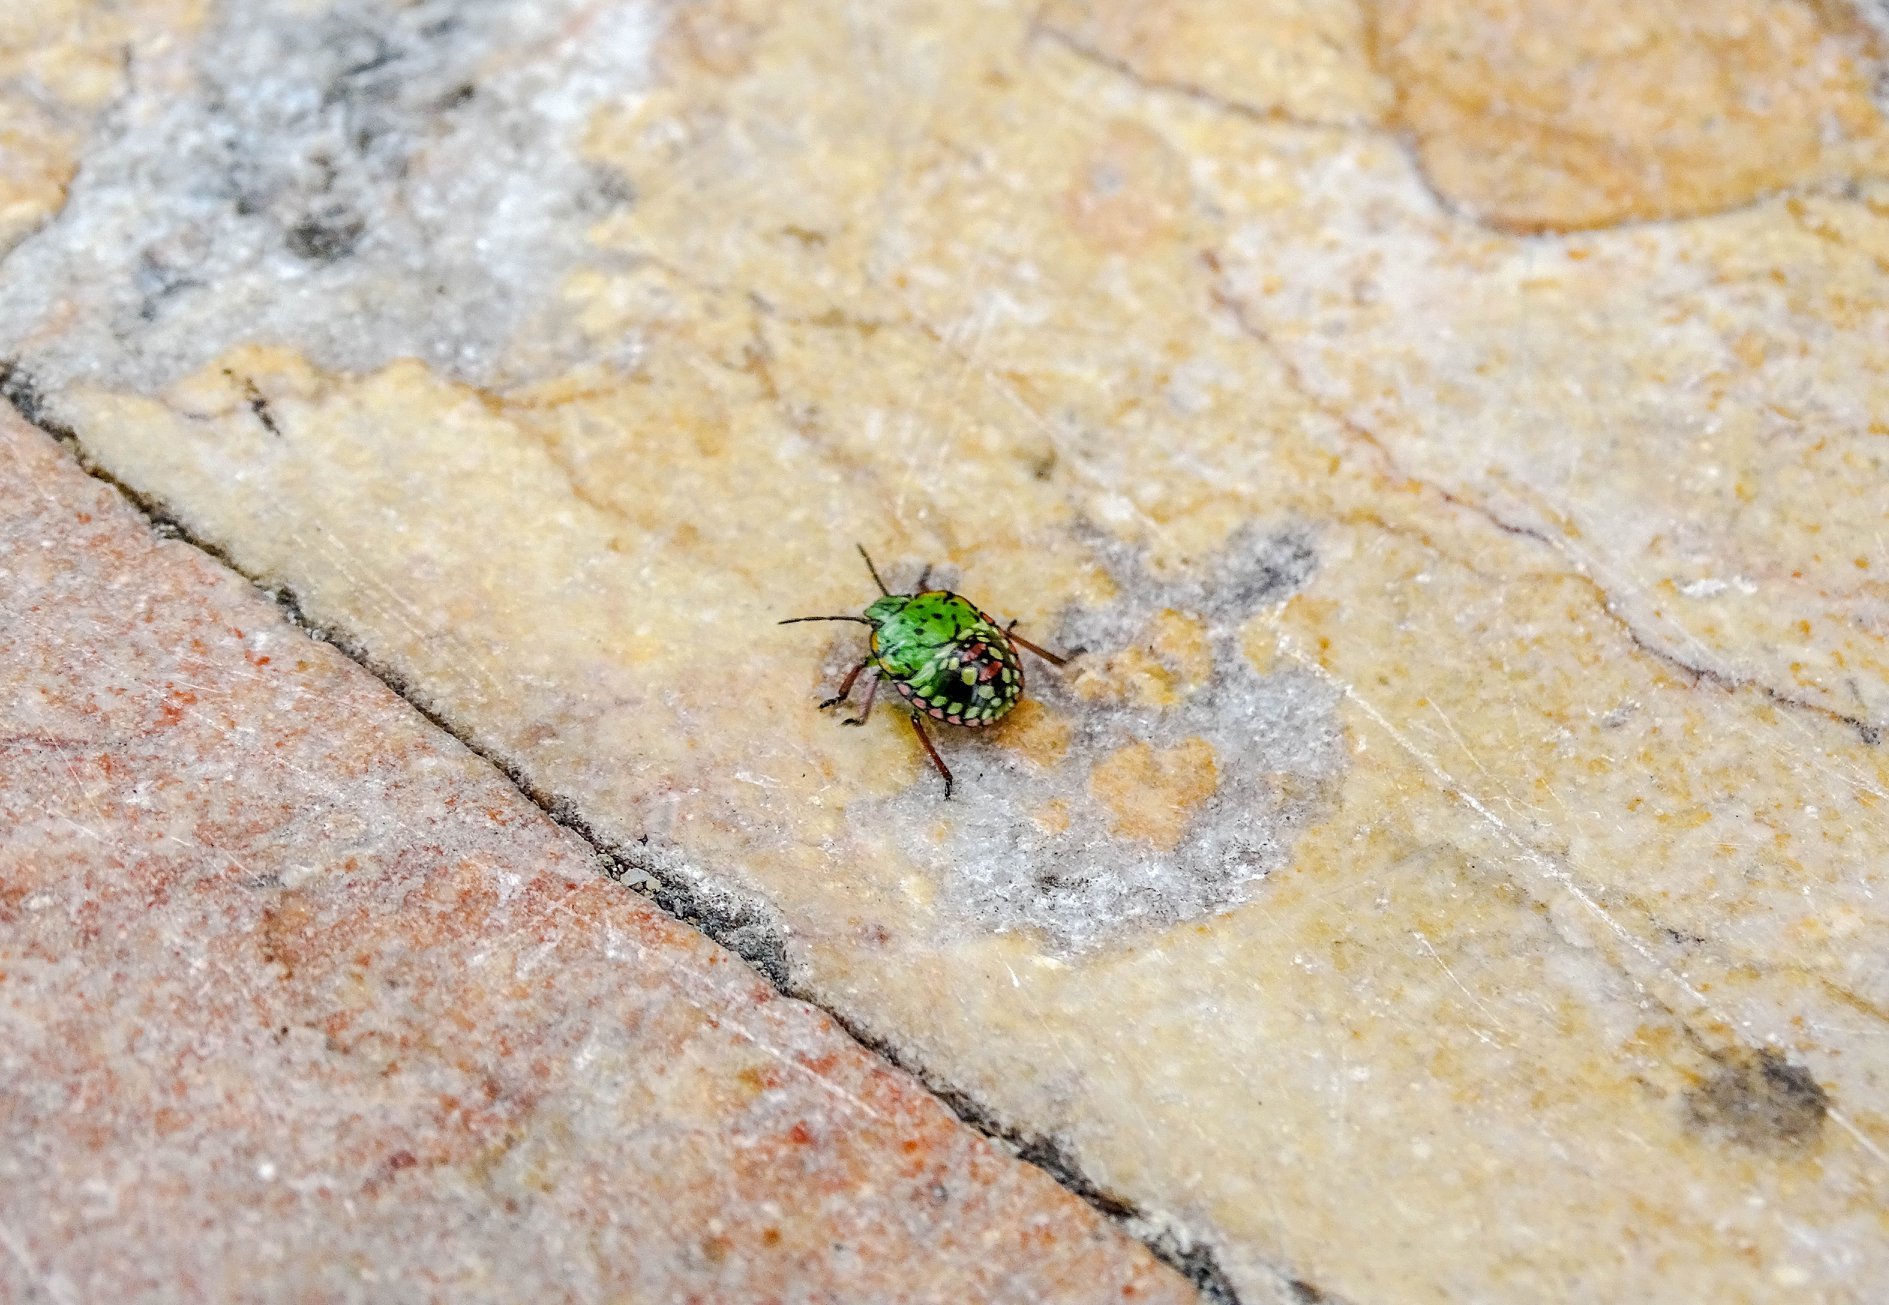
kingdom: Animalia
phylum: Arthropoda
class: Insecta
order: Hemiptera
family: Pentatomidae
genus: Nezara
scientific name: Nezara viridula
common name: Southern green stink bug
